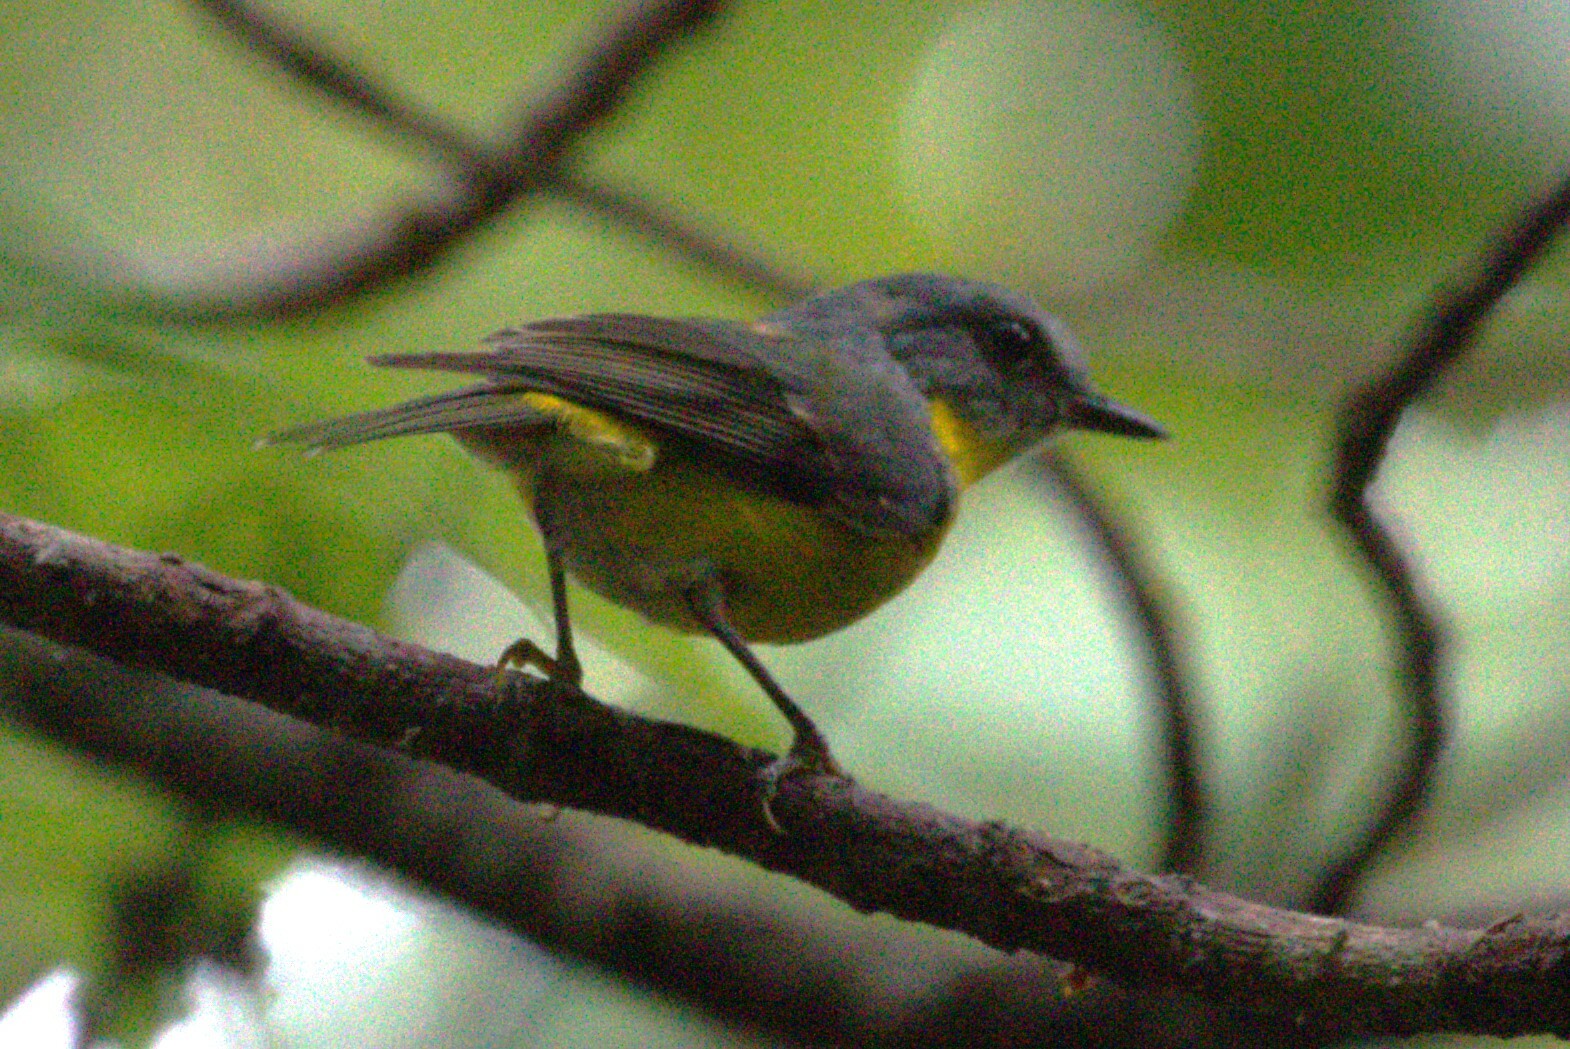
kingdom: Animalia
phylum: Chordata
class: Aves
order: Passeriformes
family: Petroicidae
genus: Eopsaltria
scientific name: Eopsaltria australis
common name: Eastern yellow robin
